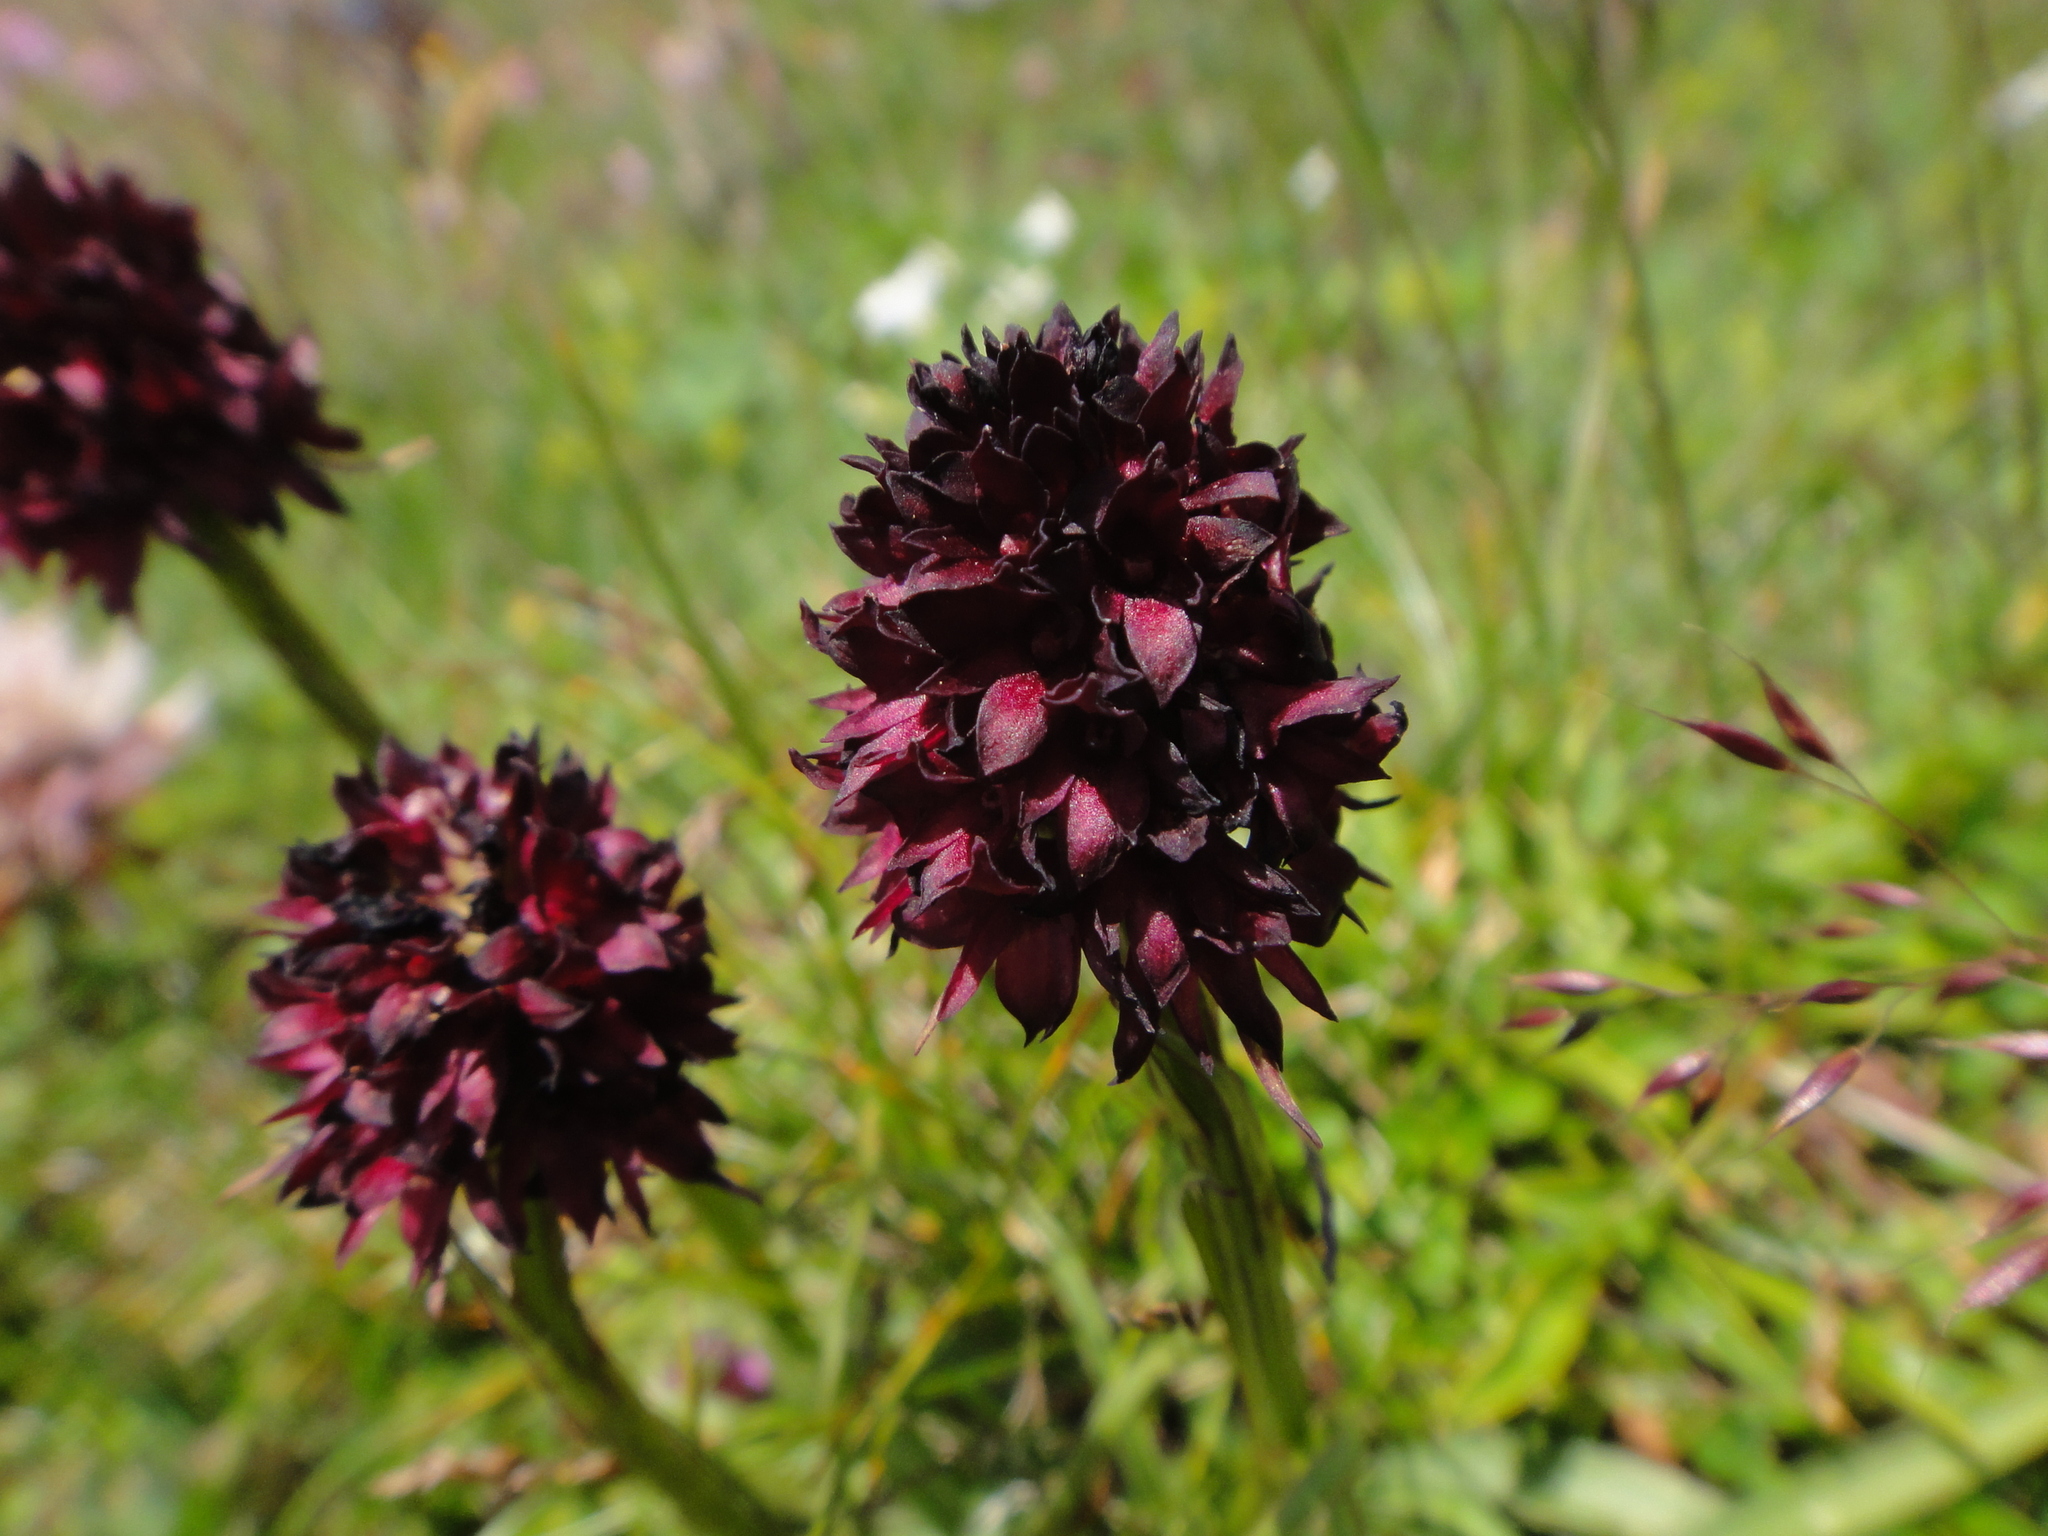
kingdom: Plantae
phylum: Tracheophyta
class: Liliopsida
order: Asparagales
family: Orchidaceae
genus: Gymnadenia
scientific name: Gymnadenia rhellicani
